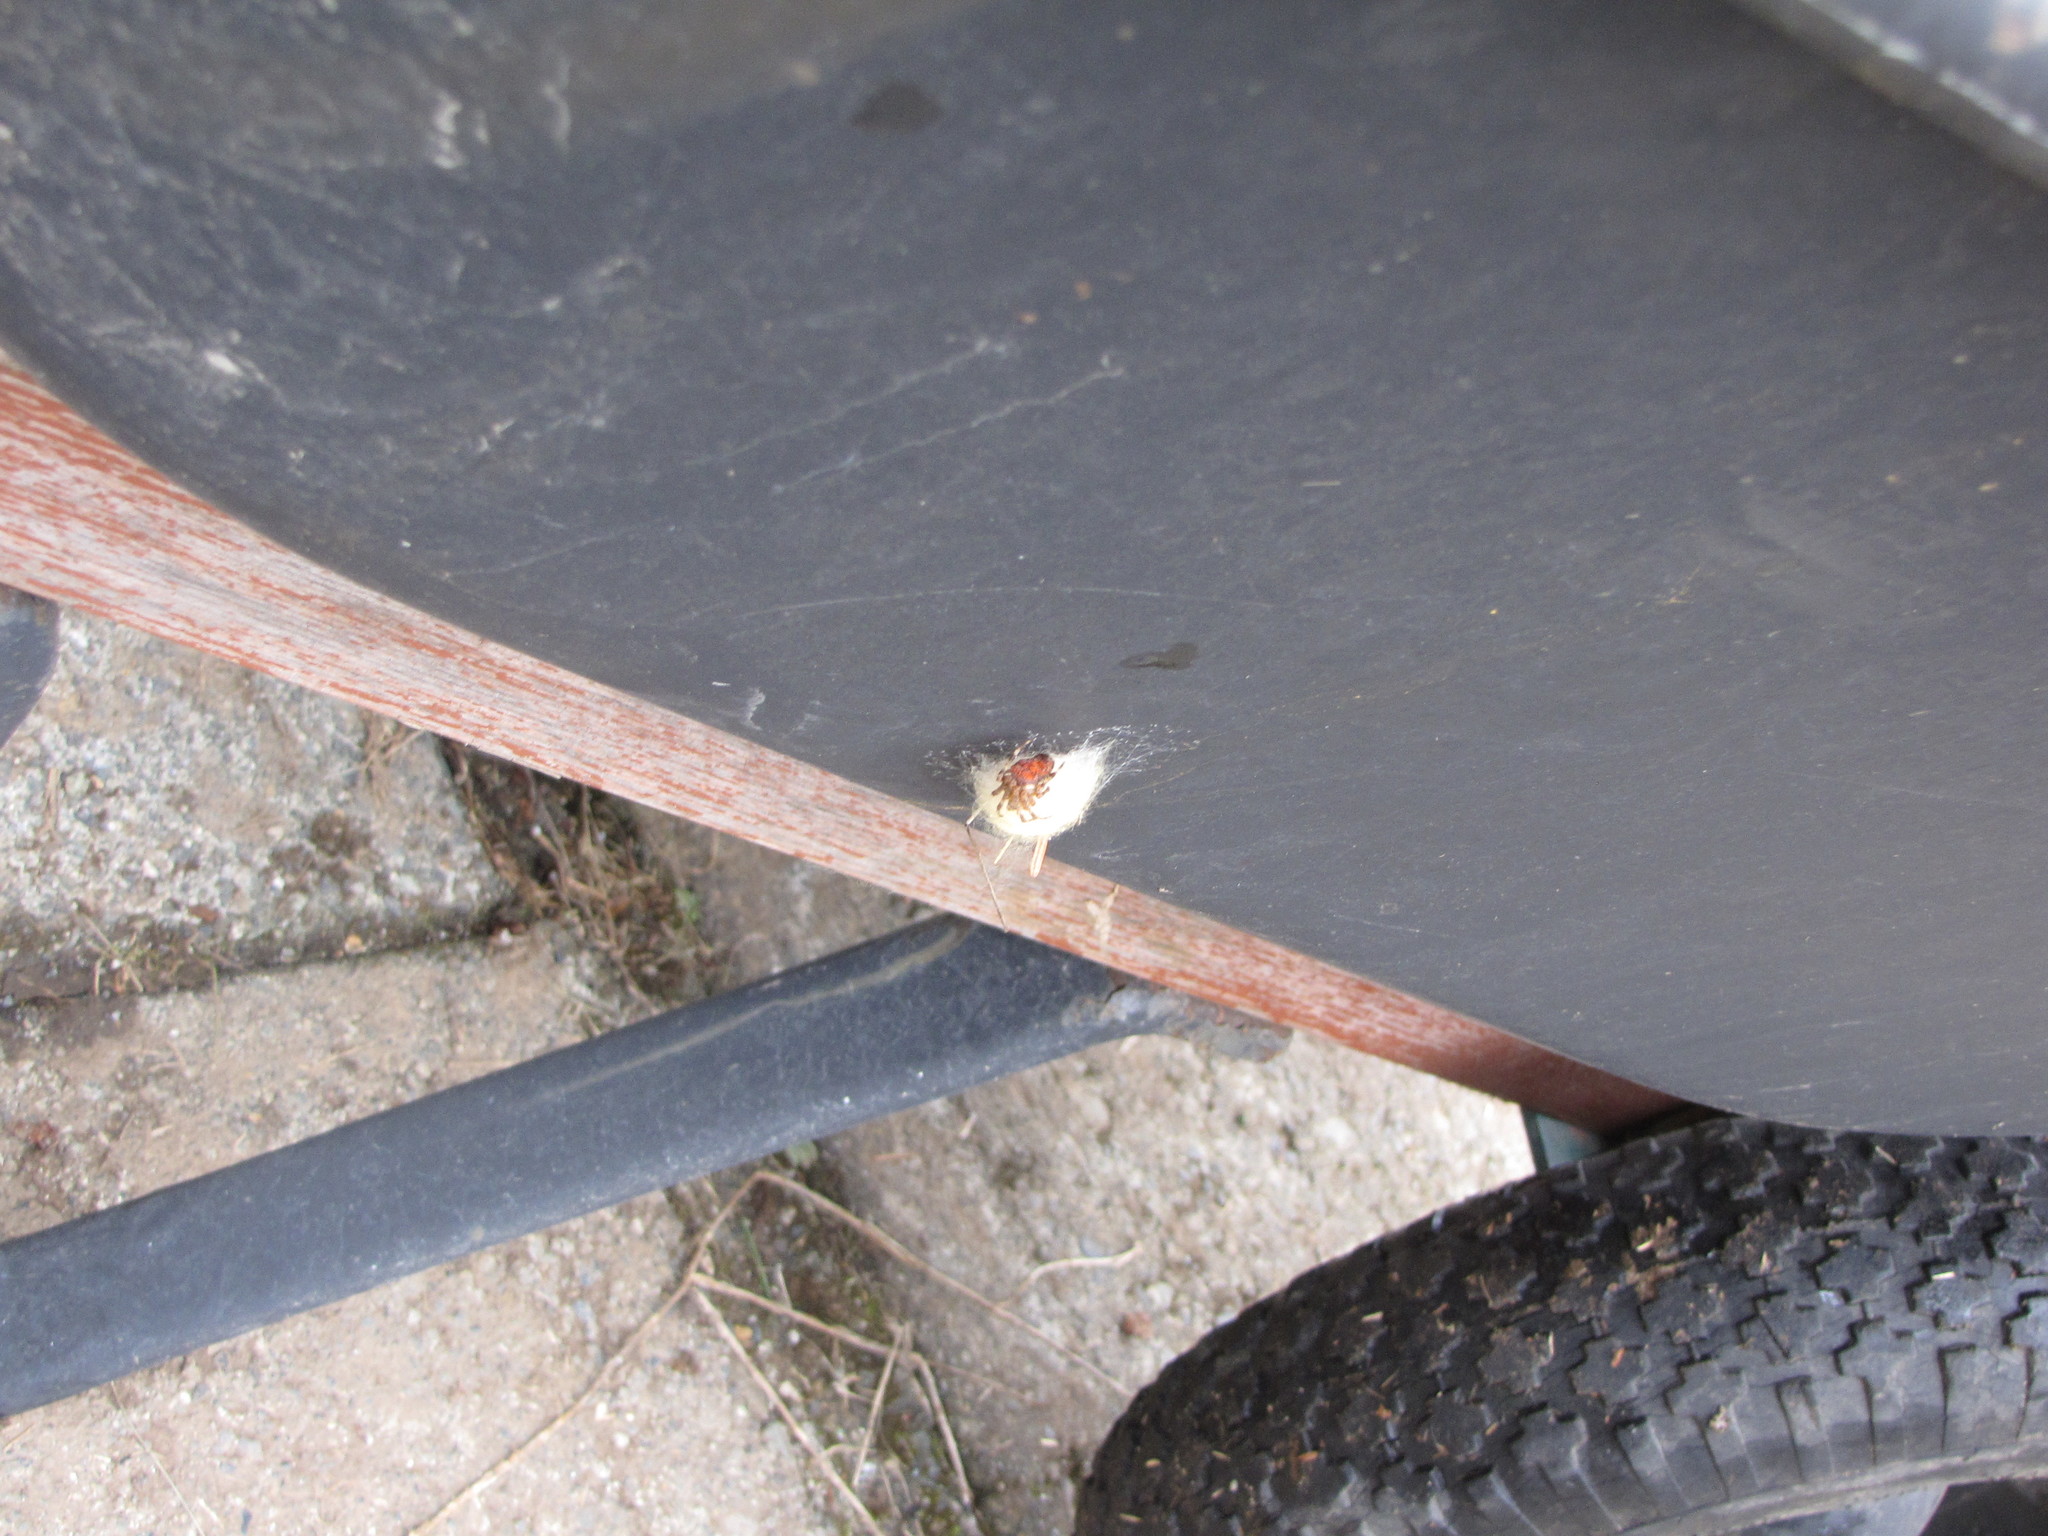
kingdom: Animalia
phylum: Arthropoda
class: Arachnida
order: Araneae
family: Araneidae
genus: Araneus
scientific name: Araneus diadematus
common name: Cross orbweaver
